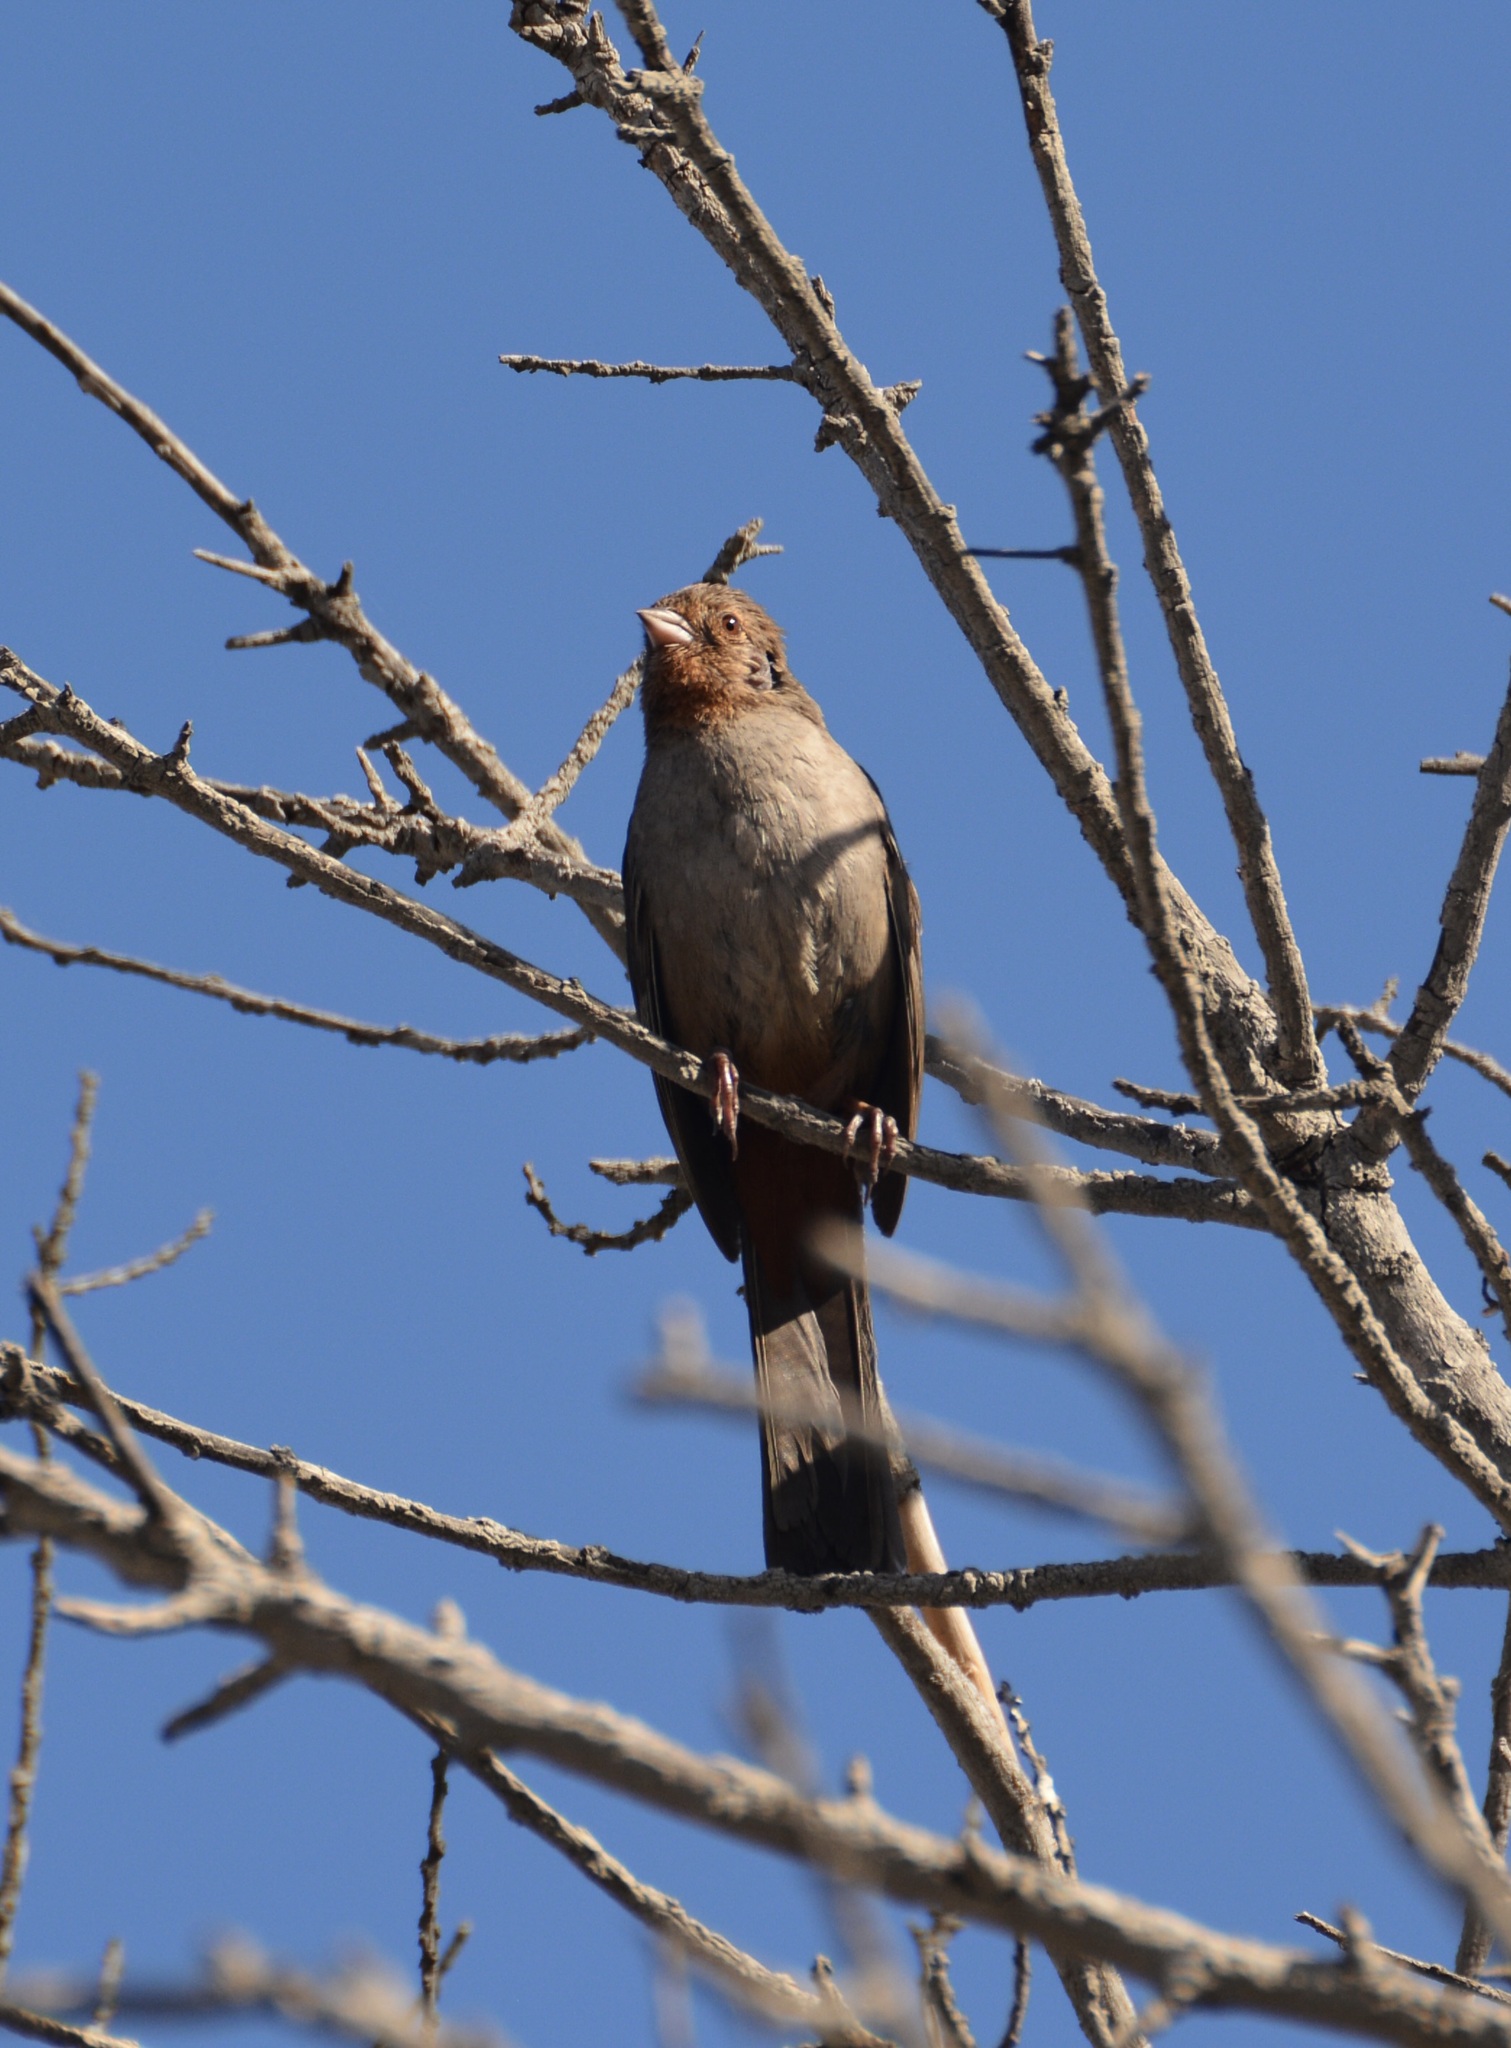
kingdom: Animalia
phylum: Chordata
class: Aves
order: Passeriformes
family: Passerellidae
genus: Melozone
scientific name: Melozone crissalis
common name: California towhee
